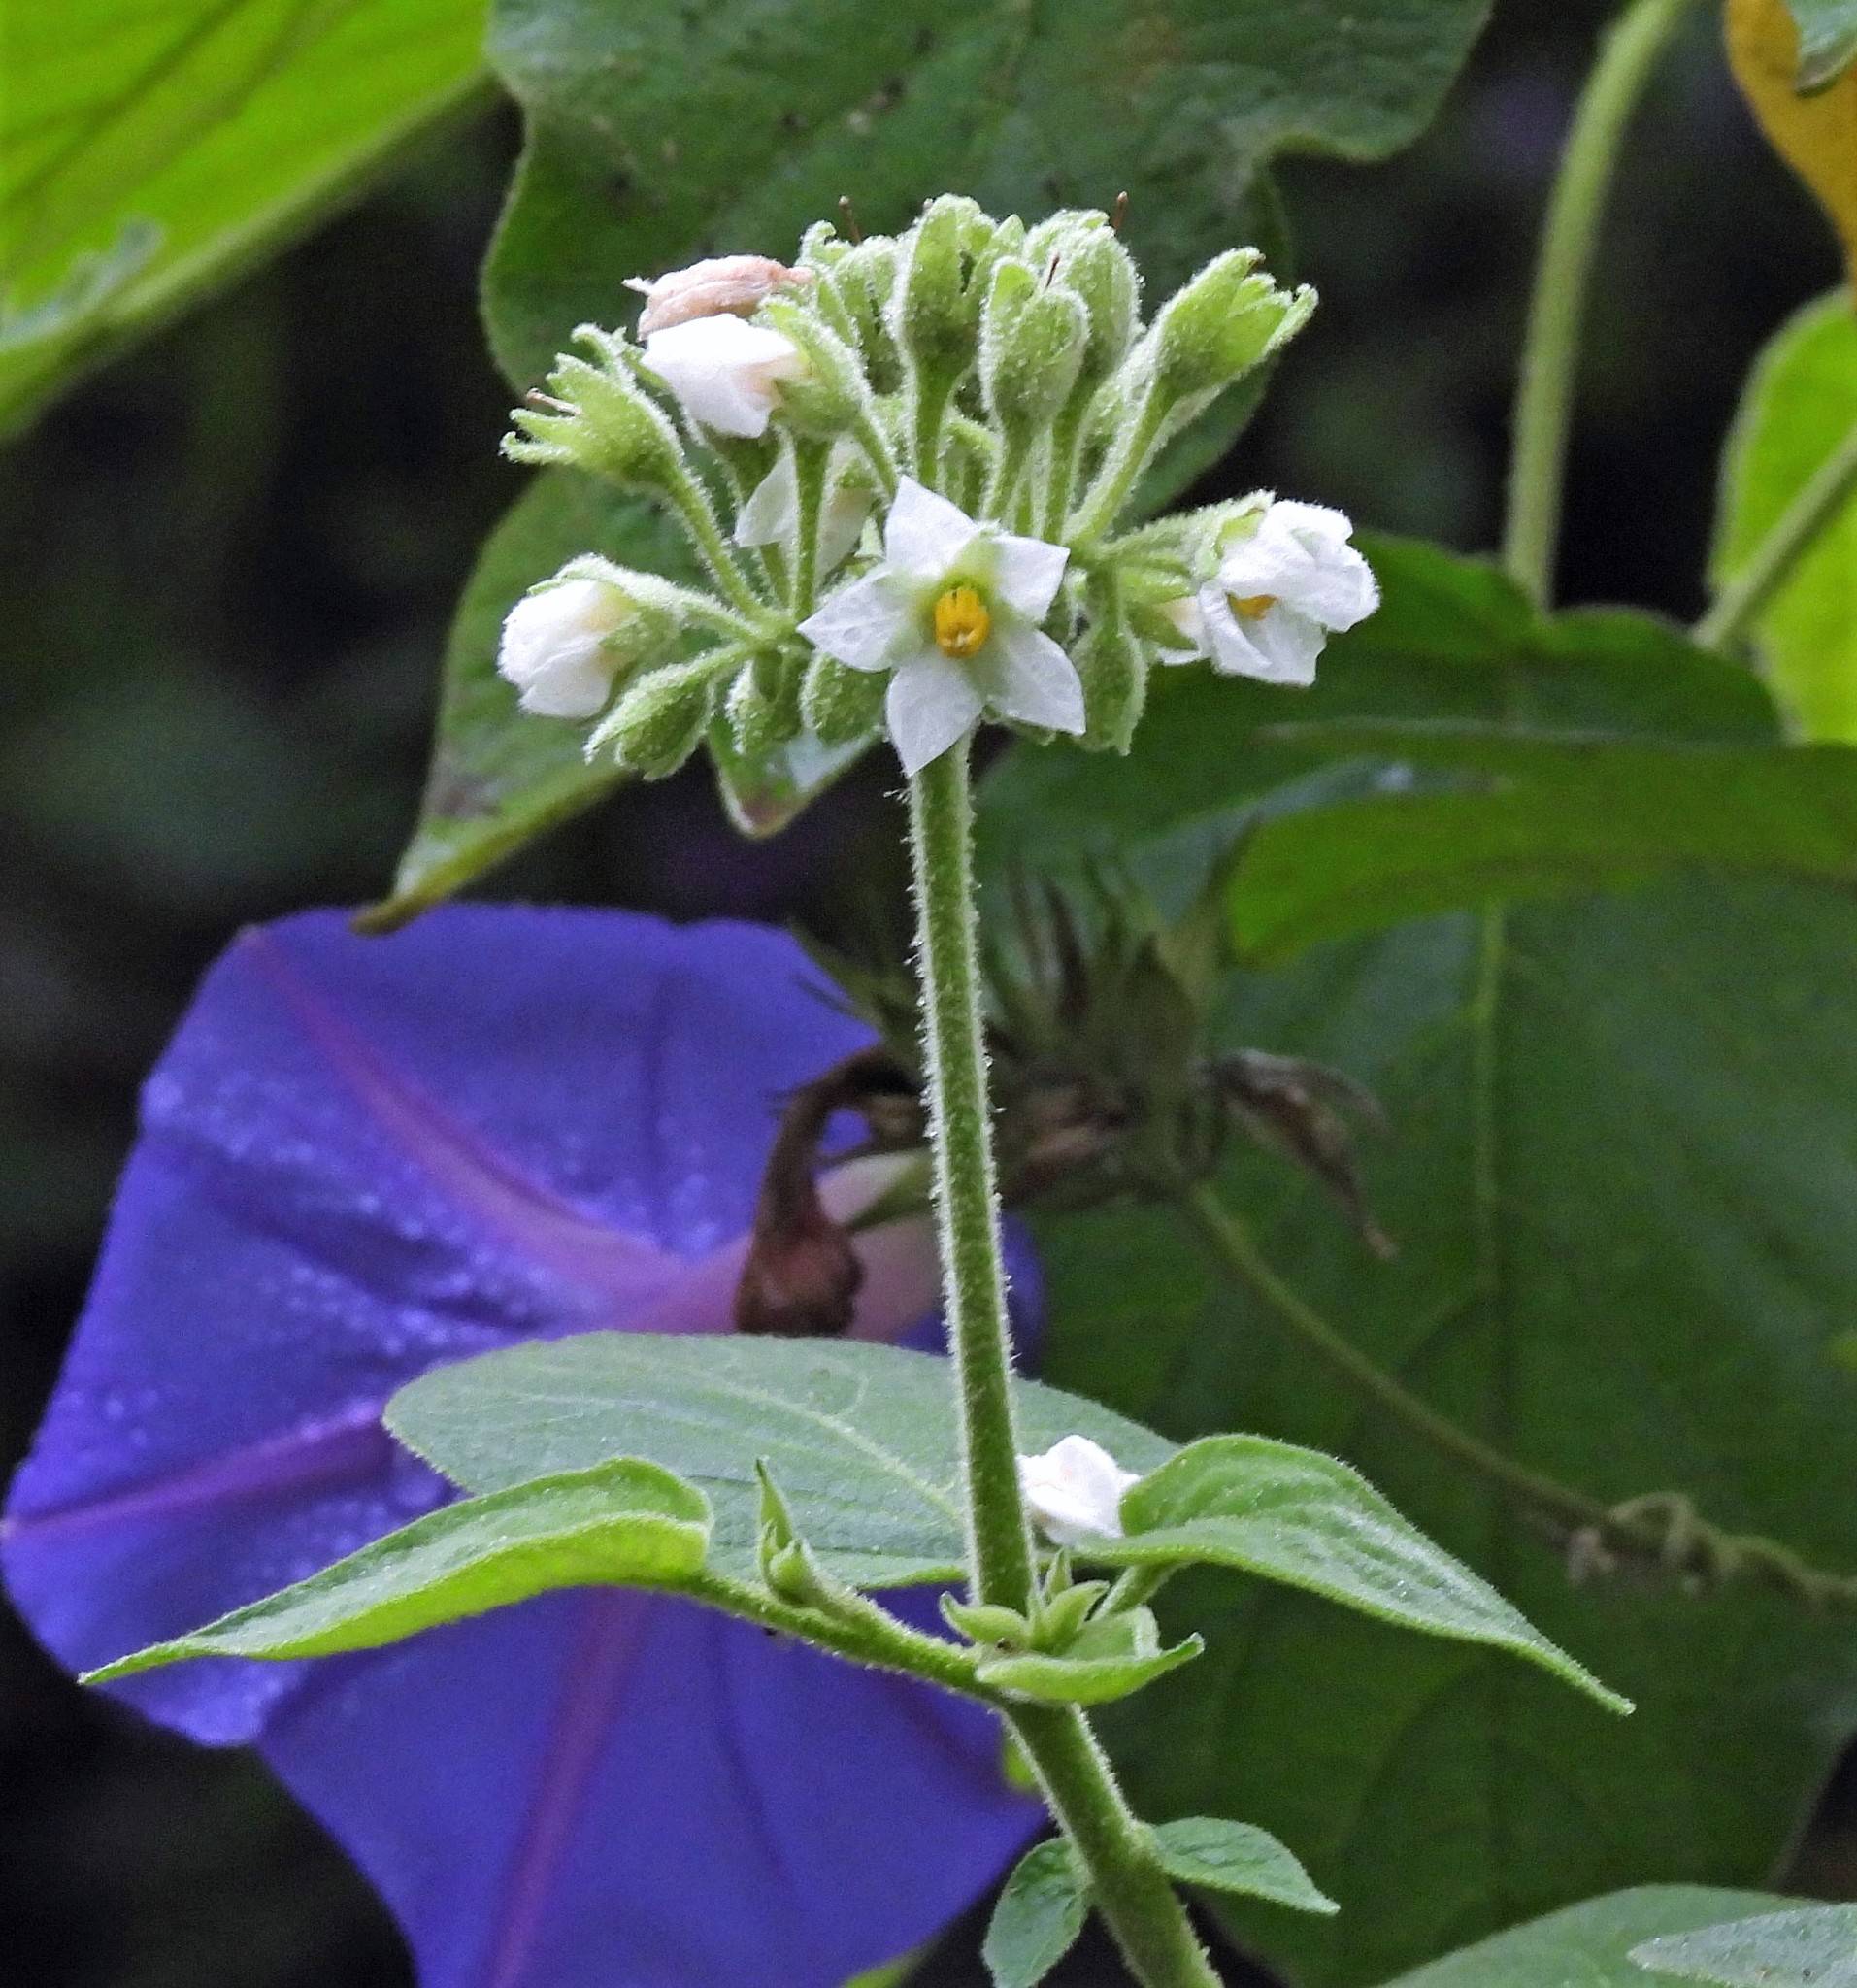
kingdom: Plantae
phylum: Tracheophyta
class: Magnoliopsida
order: Solanales
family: Solanaceae
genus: Solanum
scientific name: Solanum abutiloides
